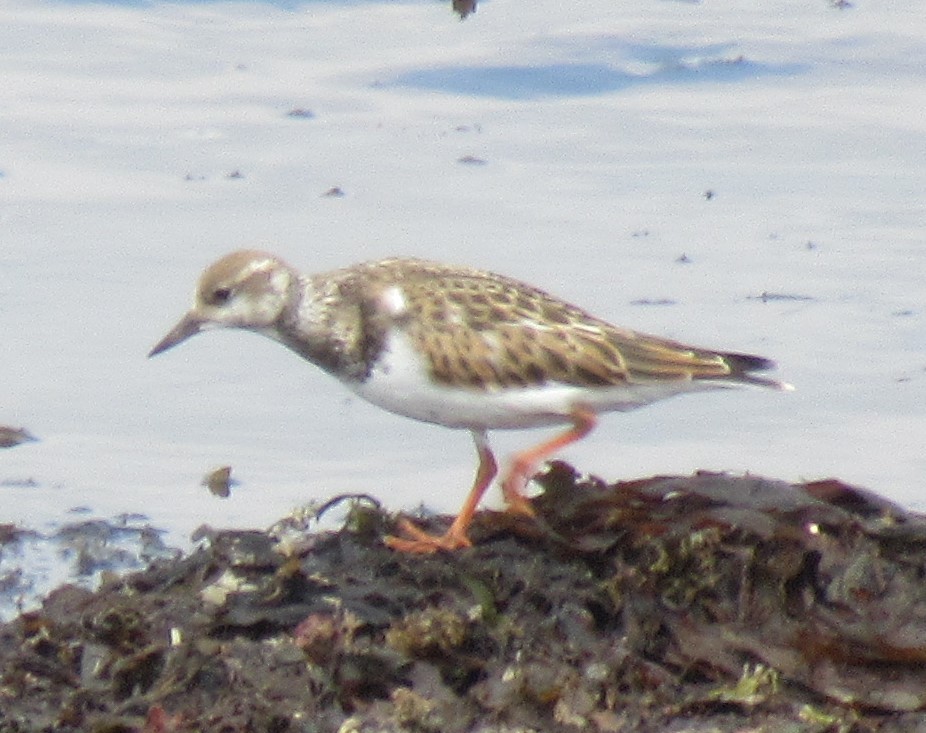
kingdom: Animalia
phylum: Chordata
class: Aves
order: Charadriiformes
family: Scolopacidae
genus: Arenaria
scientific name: Arenaria interpres
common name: Ruddy turnstone
